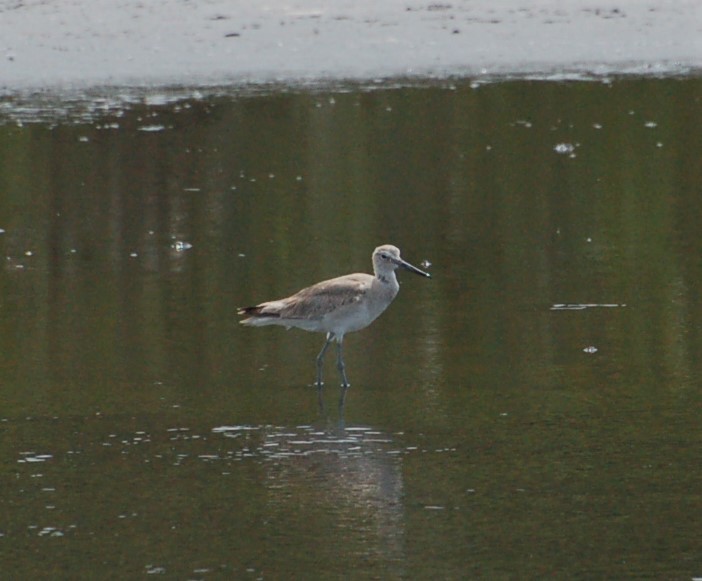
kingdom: Animalia
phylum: Chordata
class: Aves
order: Charadriiformes
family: Scolopacidae
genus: Tringa
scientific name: Tringa semipalmata
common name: Willet
